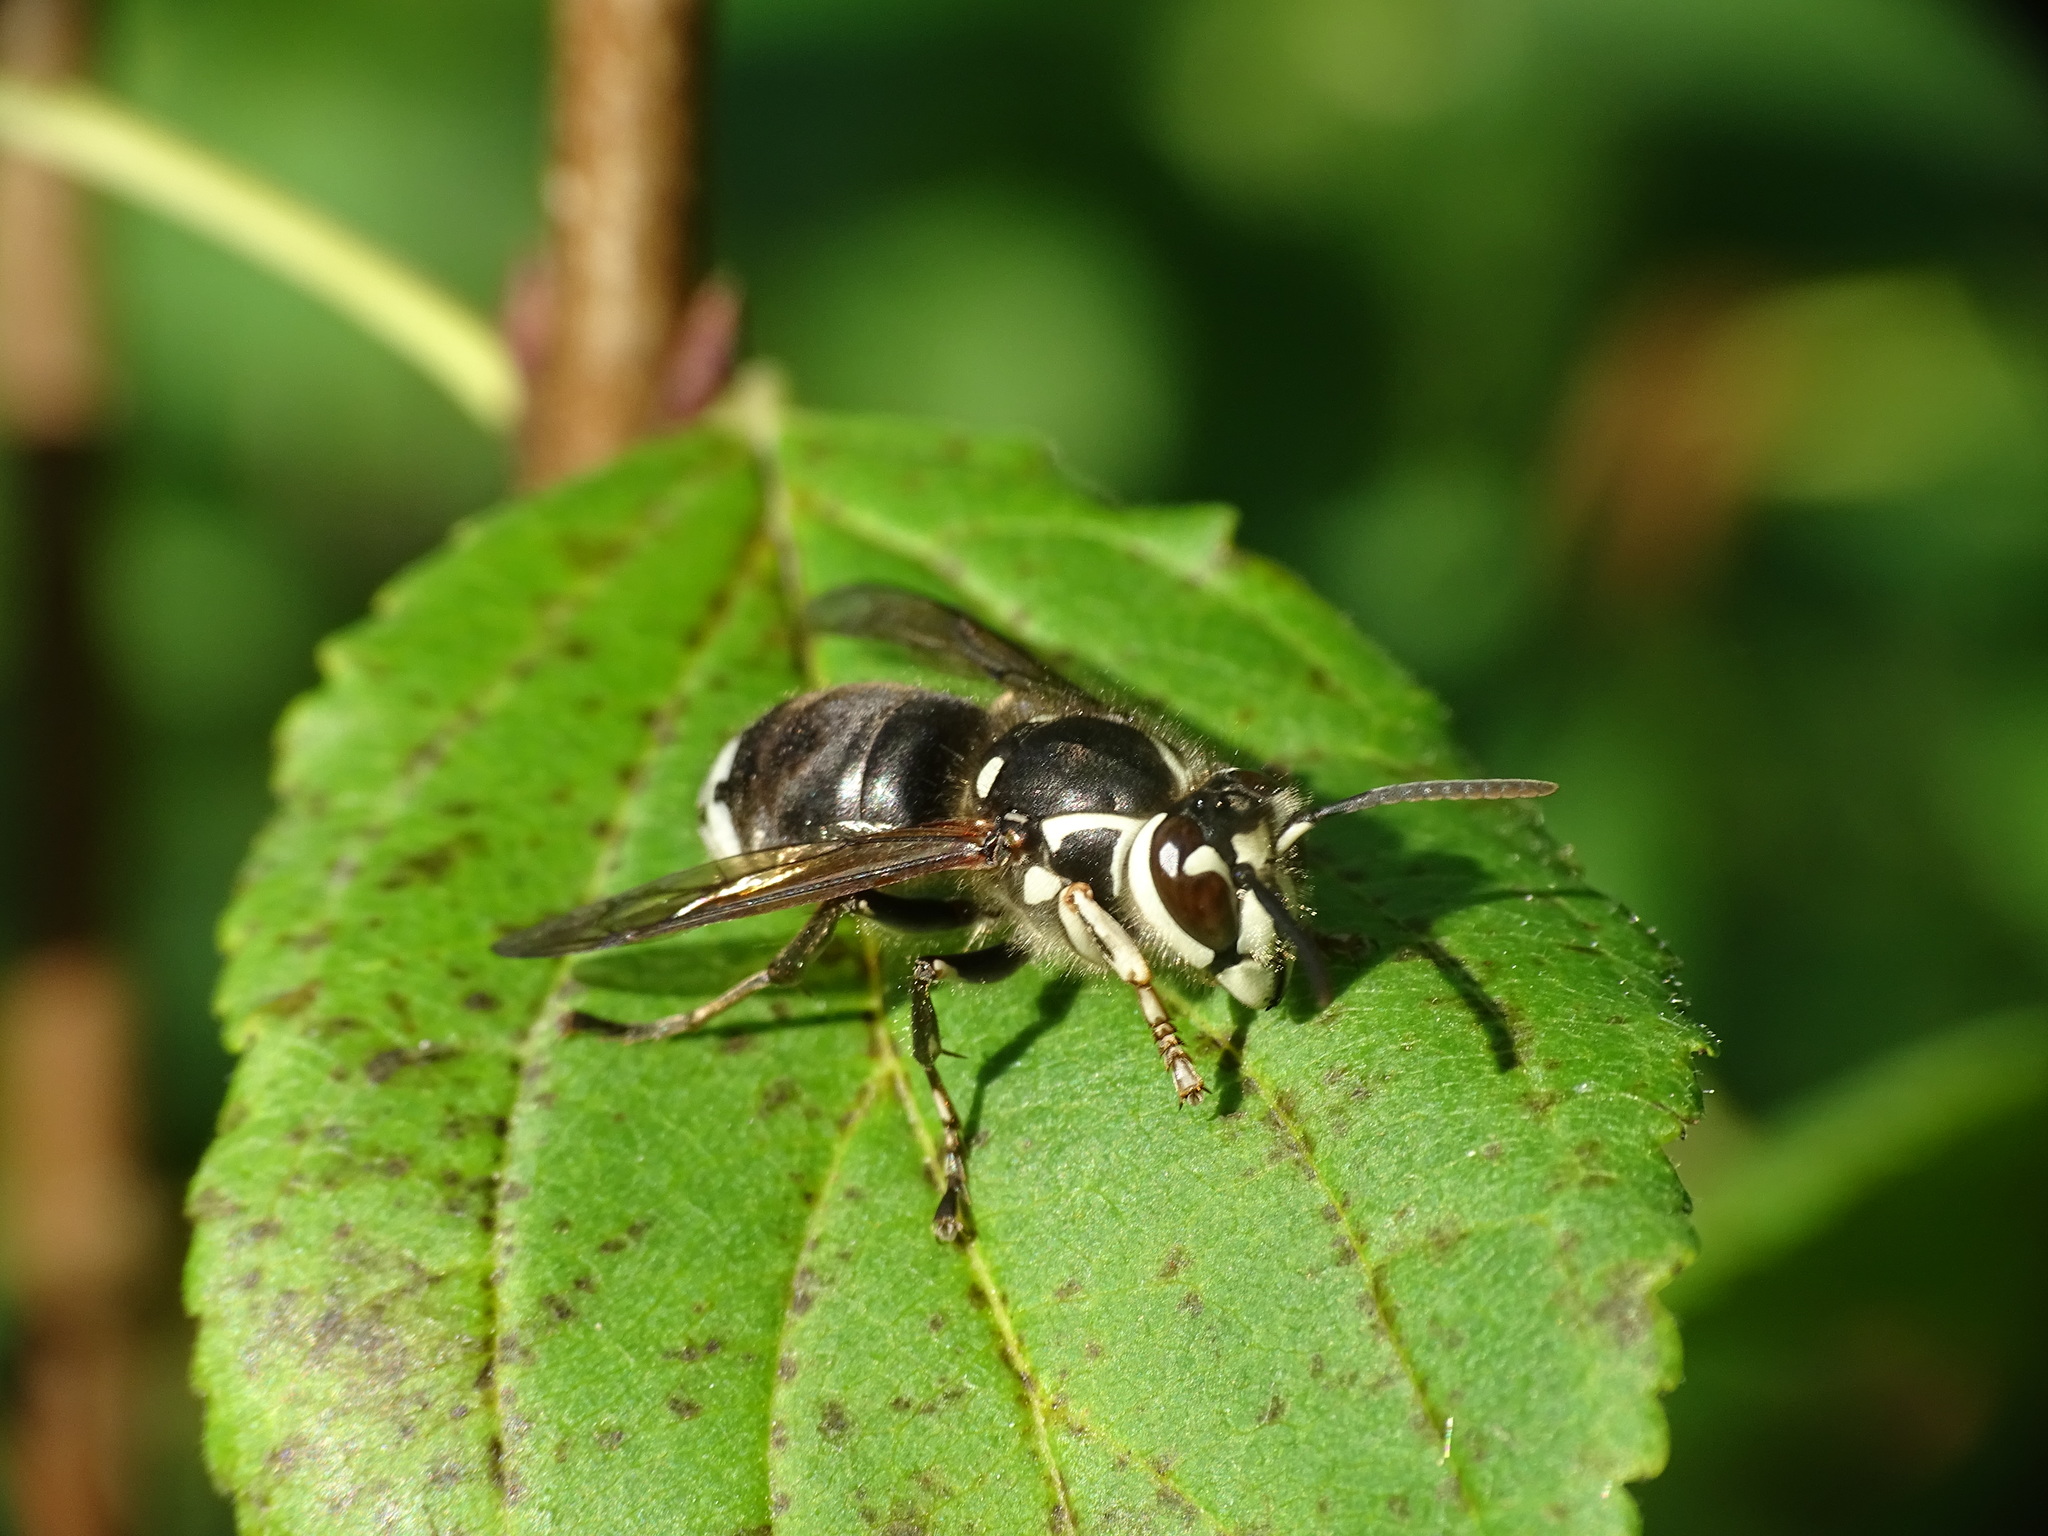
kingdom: Animalia
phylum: Arthropoda
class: Insecta
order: Hymenoptera
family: Vespidae
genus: Dolichovespula
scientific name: Dolichovespula maculata
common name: Bald-faced hornet
